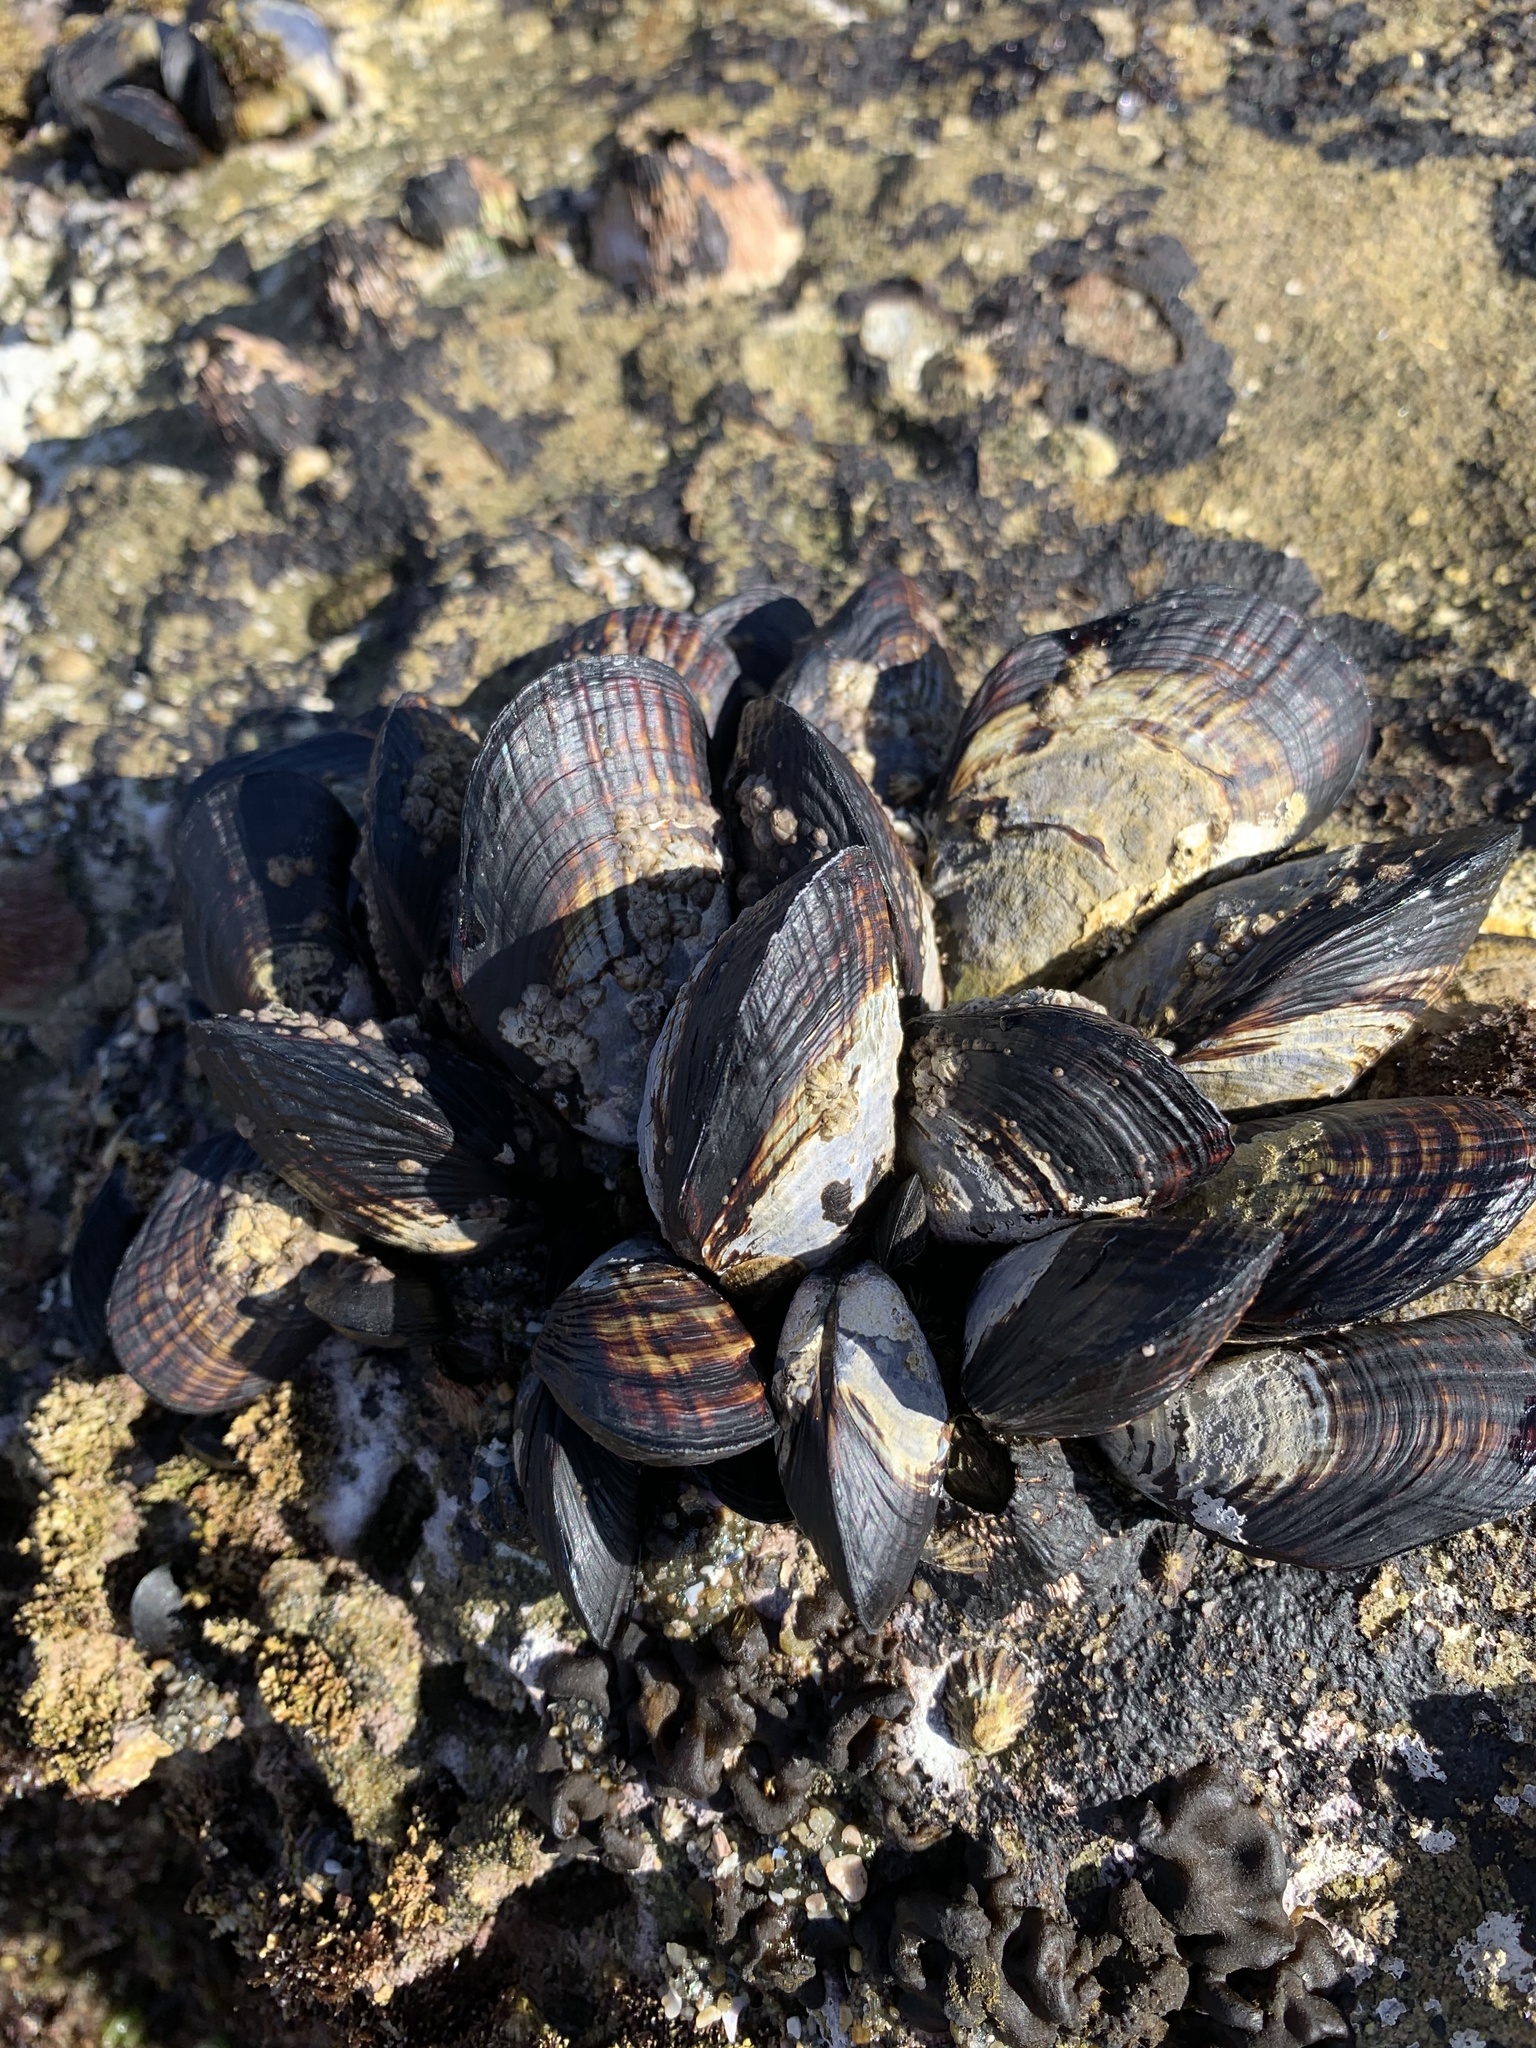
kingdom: Animalia
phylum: Mollusca
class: Bivalvia
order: Mytilida
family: Mytilidae
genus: Mytilus
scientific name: Mytilus californianus
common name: California mussel
